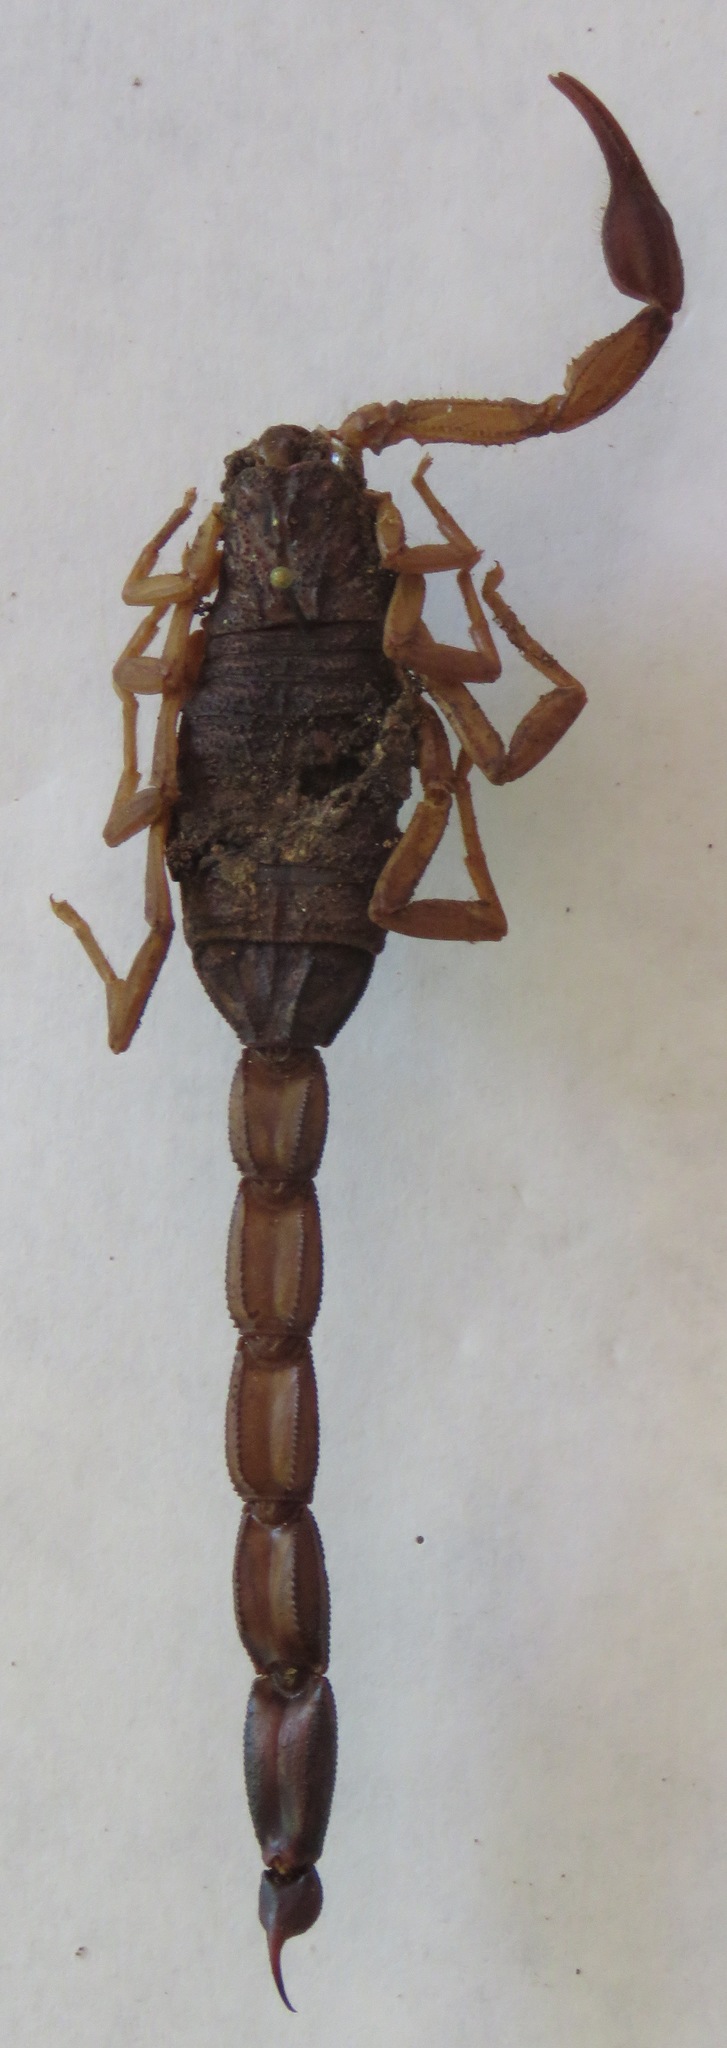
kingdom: Animalia
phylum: Arthropoda
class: Arachnida
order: Scorpiones
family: Buthidae
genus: Centruroides
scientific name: Centruroides edwardsii
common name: Scorpions
